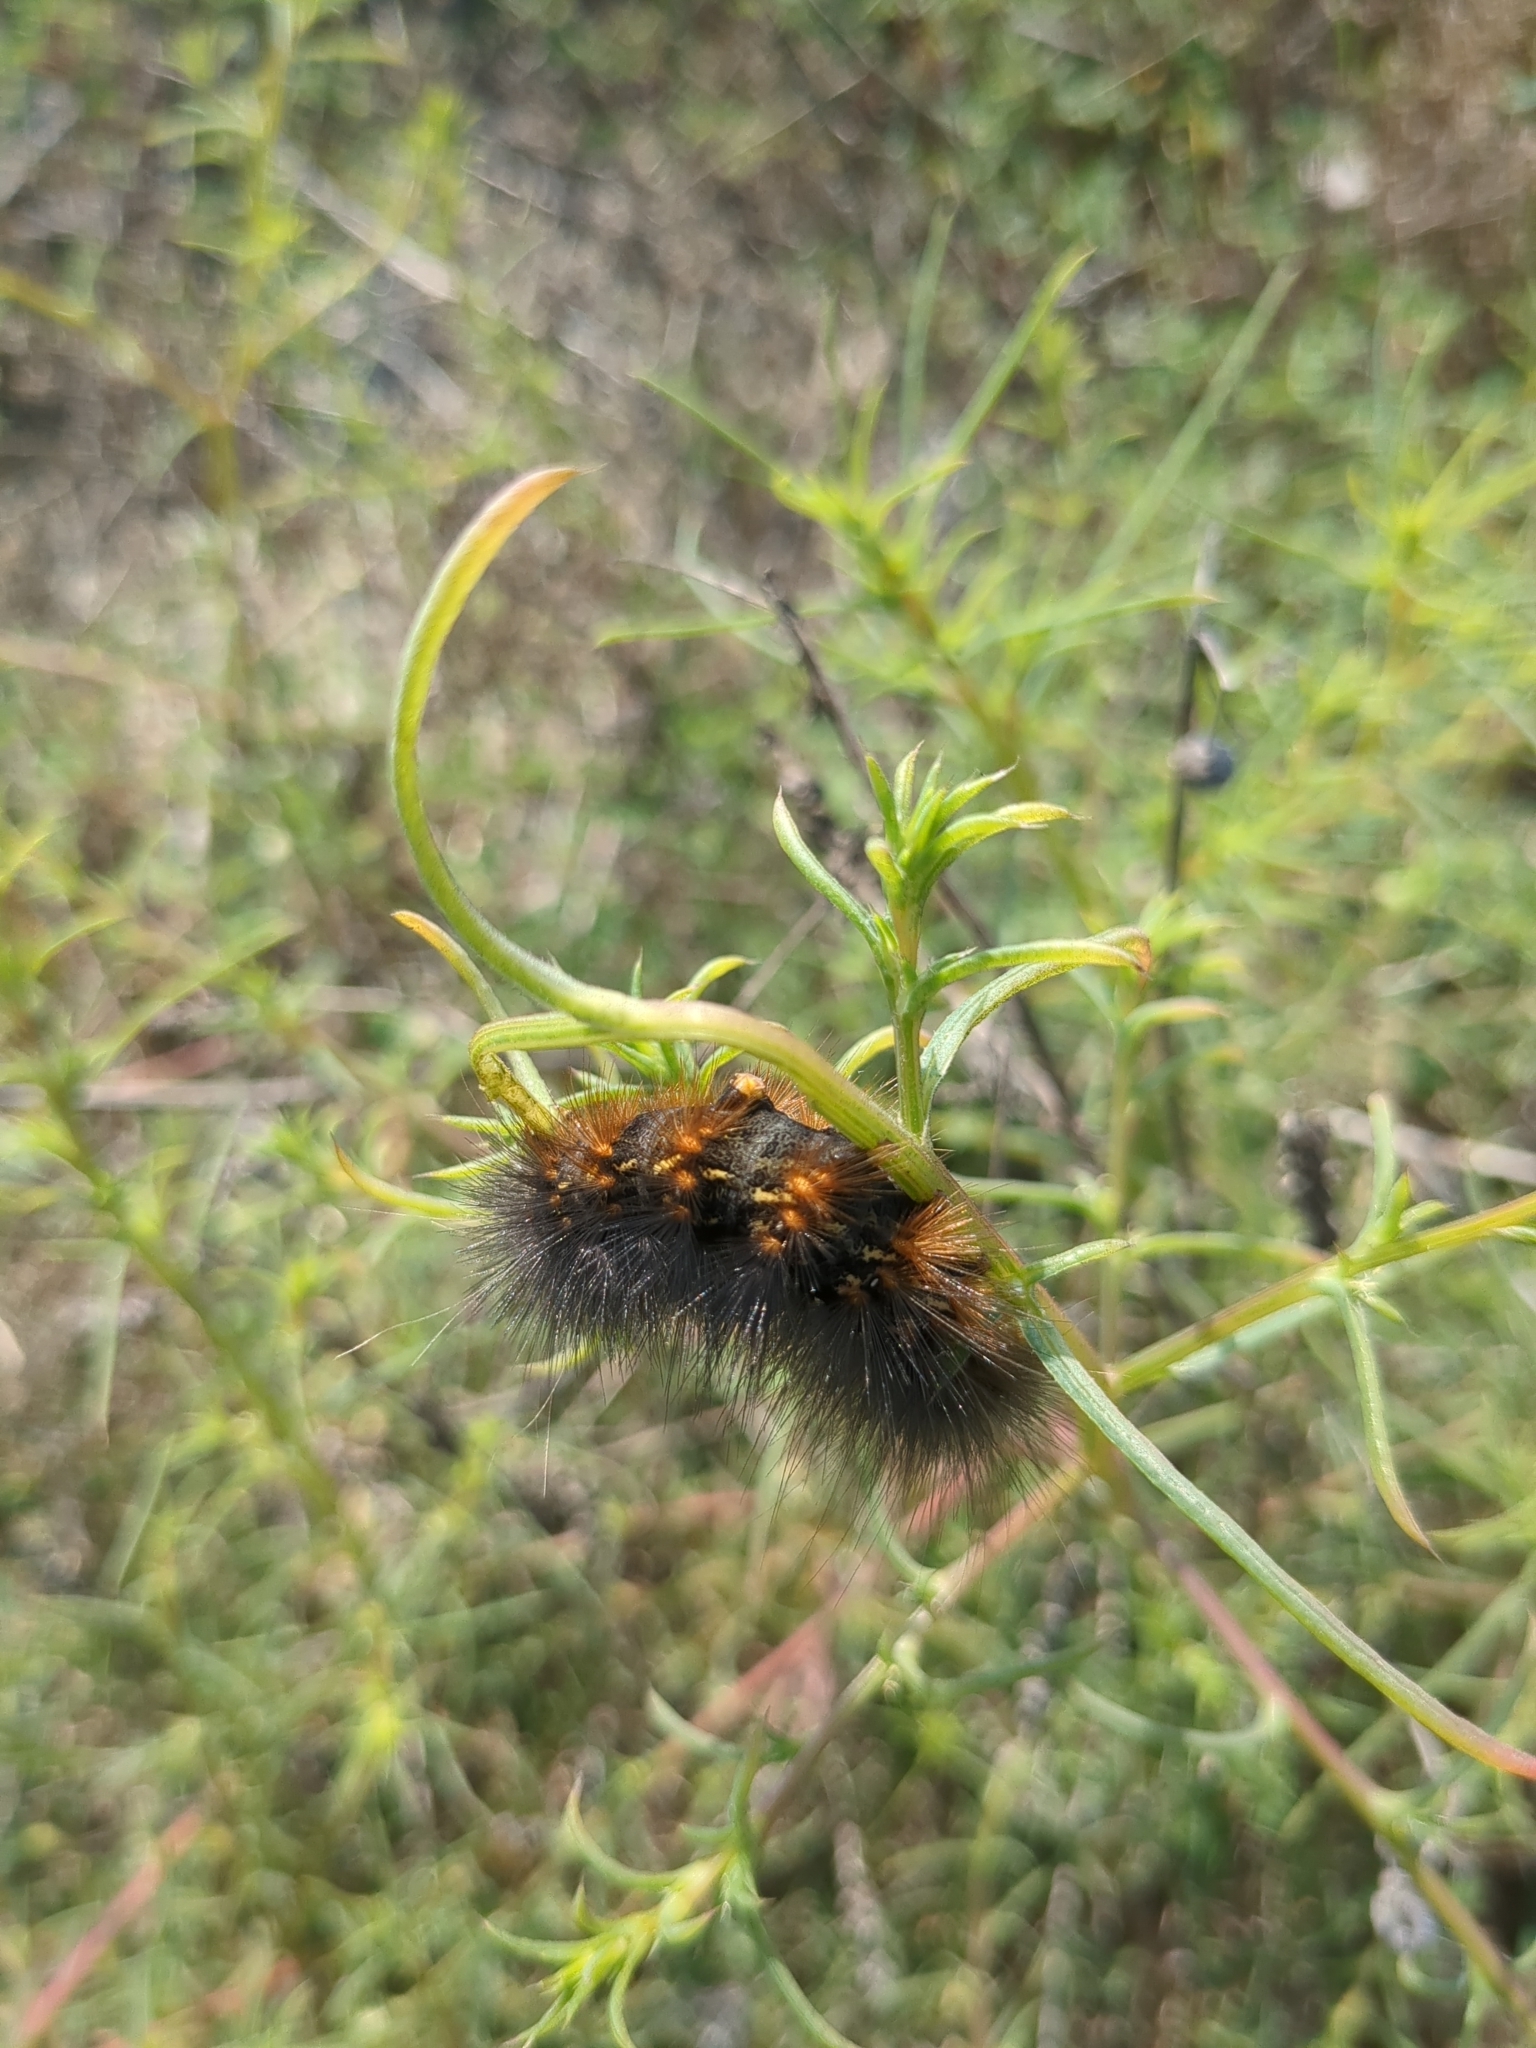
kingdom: Animalia
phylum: Arthropoda
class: Insecta
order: Lepidoptera
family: Erebidae
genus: Estigmene
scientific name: Estigmene acrea
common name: Salt marsh moth
